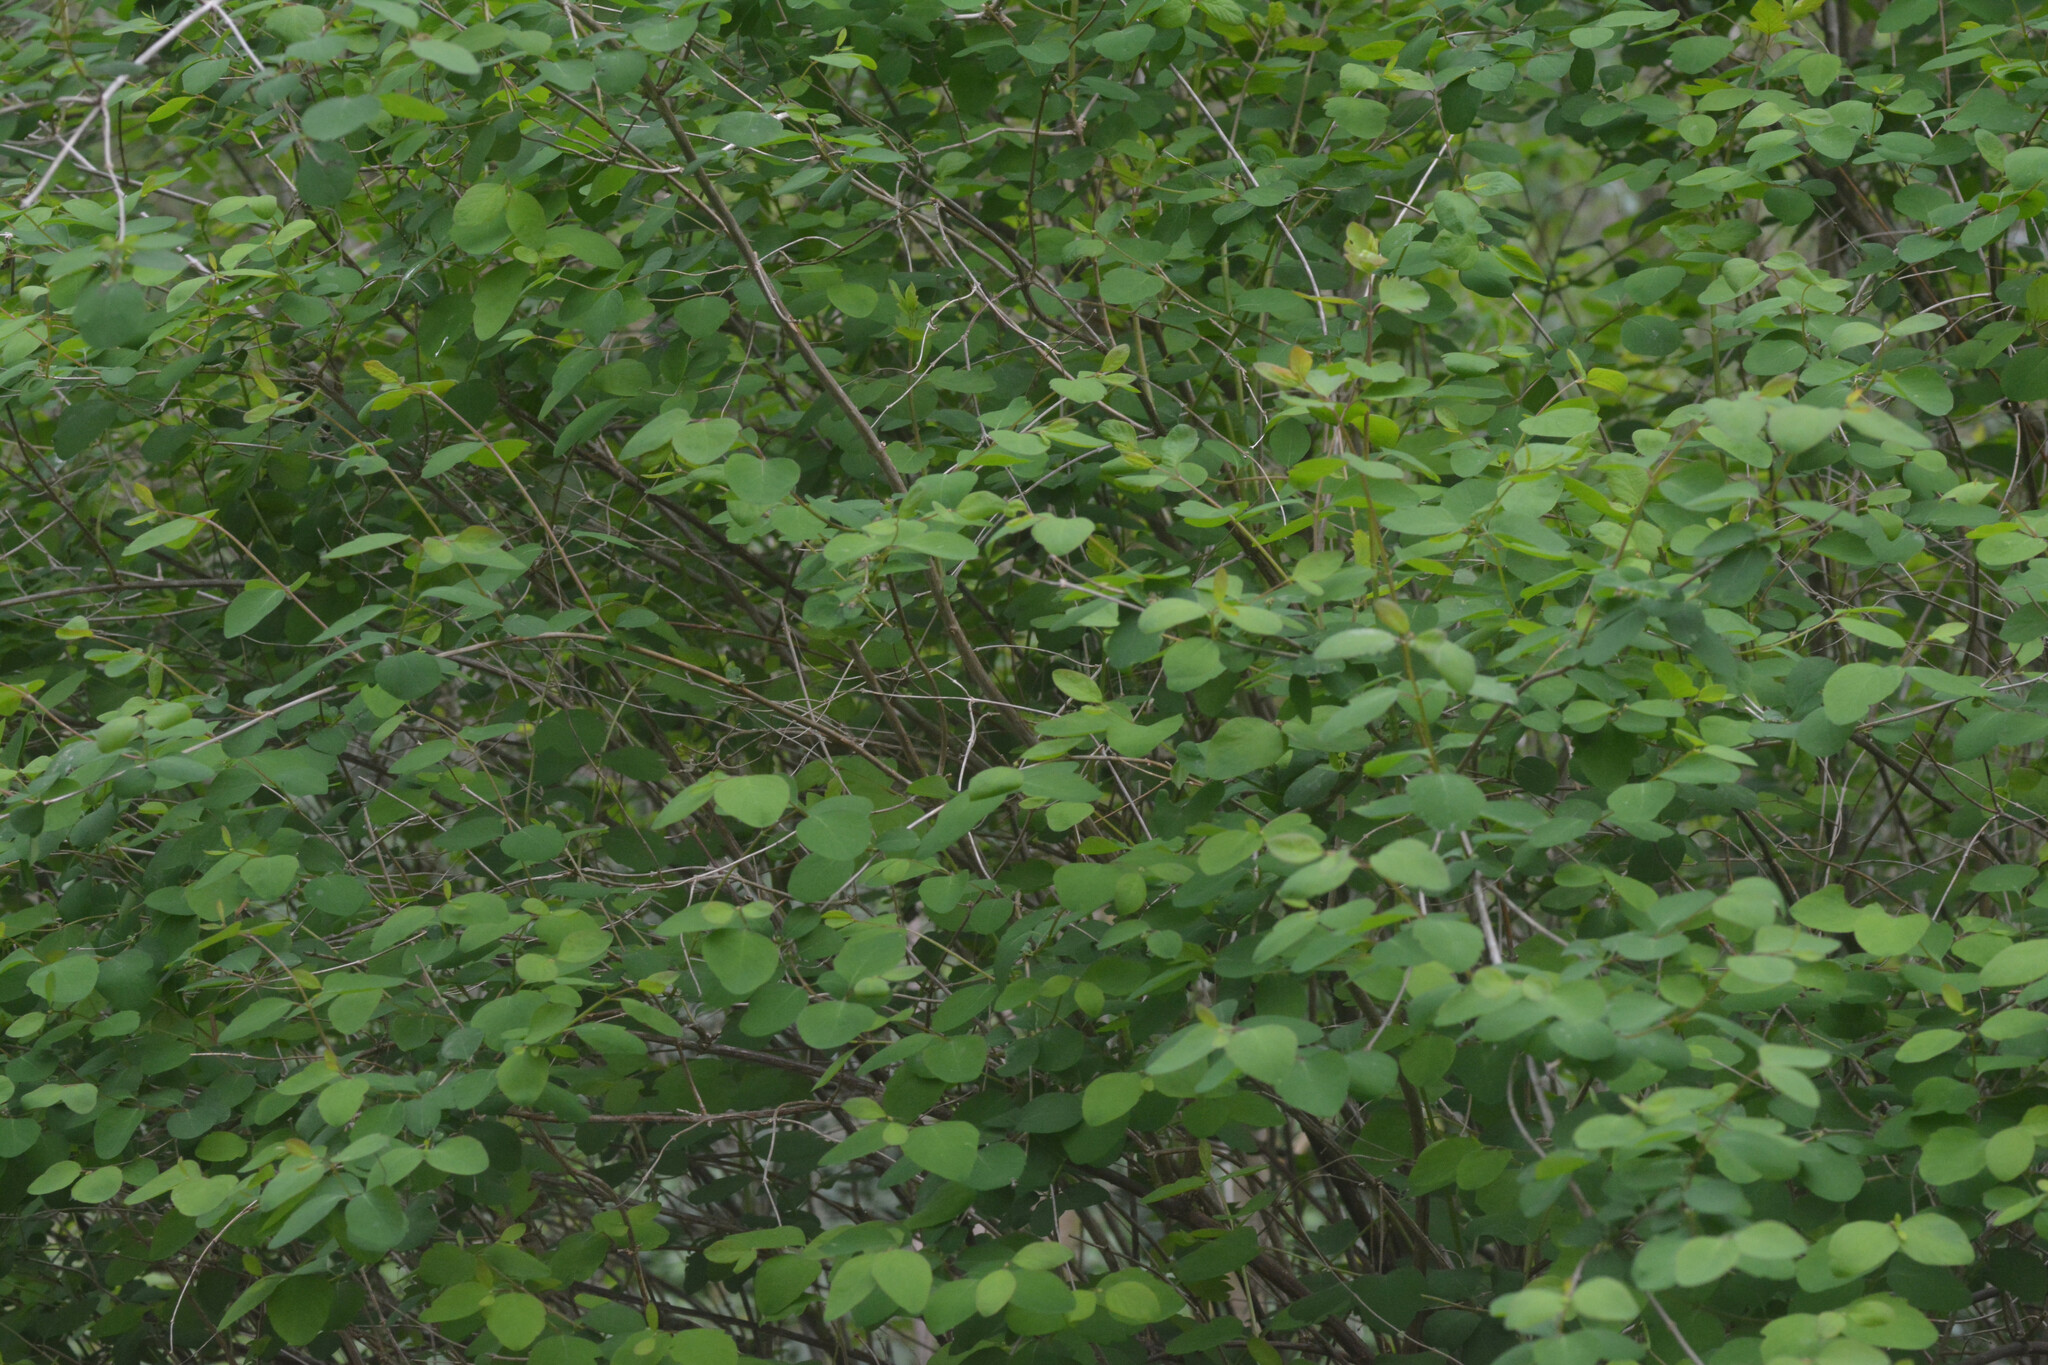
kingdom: Plantae
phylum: Tracheophyta
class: Magnoliopsida
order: Dipsacales
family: Caprifoliaceae
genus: Symphoricarpos
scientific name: Symphoricarpos albus
